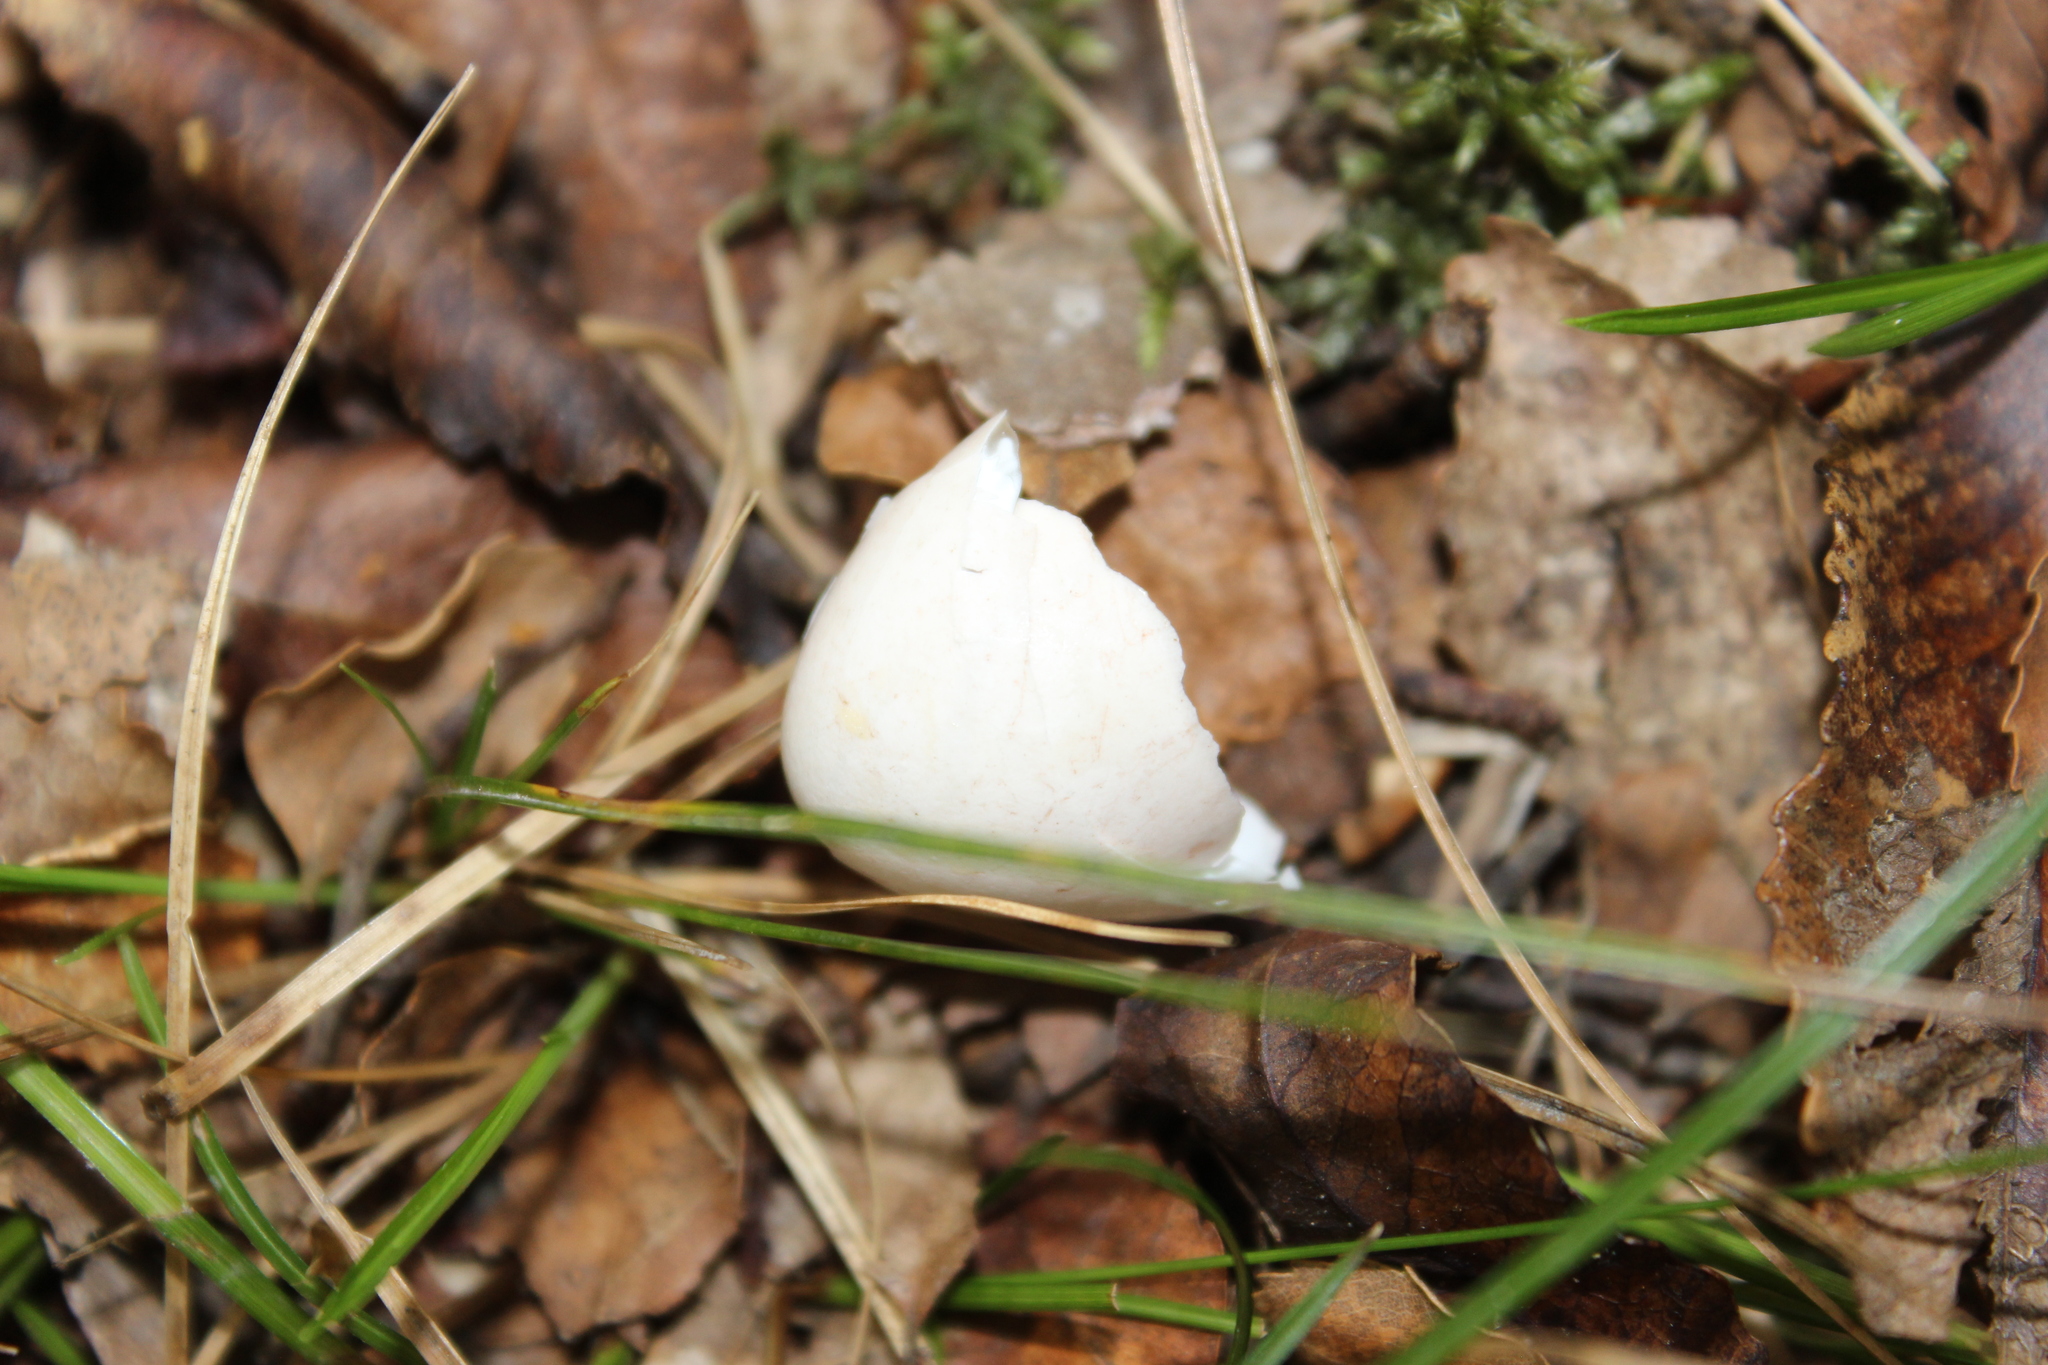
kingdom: Animalia
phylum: Chordata
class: Aves
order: Passeriformes
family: Meliphagidae
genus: Prosthemadera
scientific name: Prosthemadera novaeseelandiae
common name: Tui
